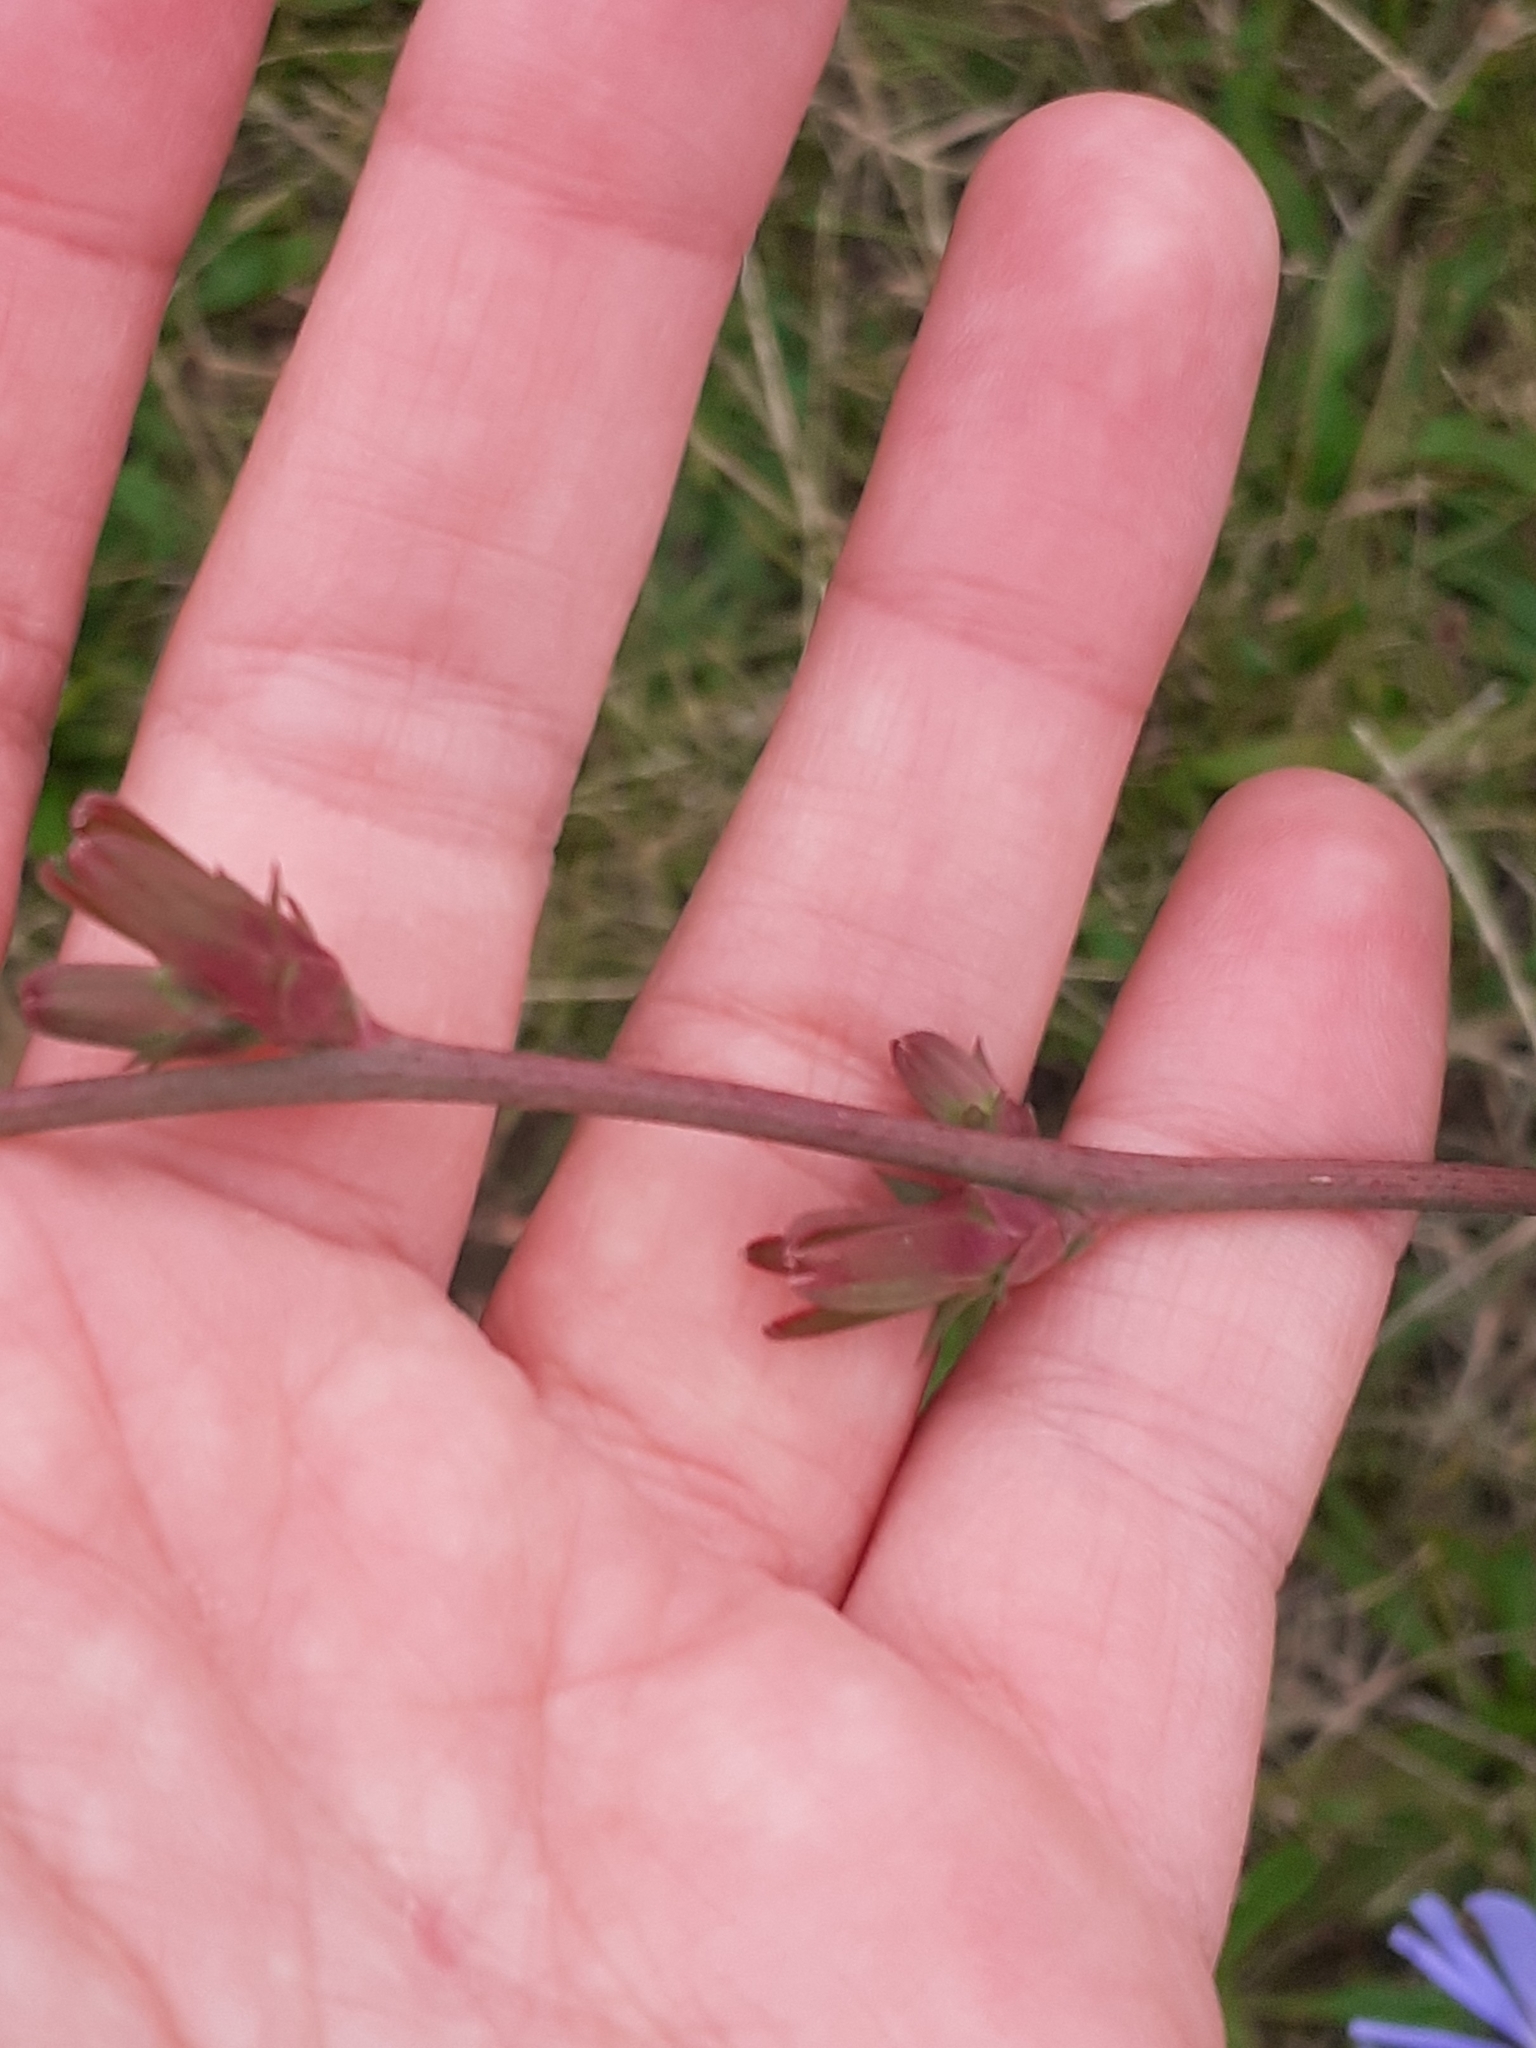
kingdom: Plantae
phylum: Tracheophyta
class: Magnoliopsida
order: Asterales
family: Asteraceae
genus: Cichorium
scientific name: Cichorium intybus
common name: Chicory
